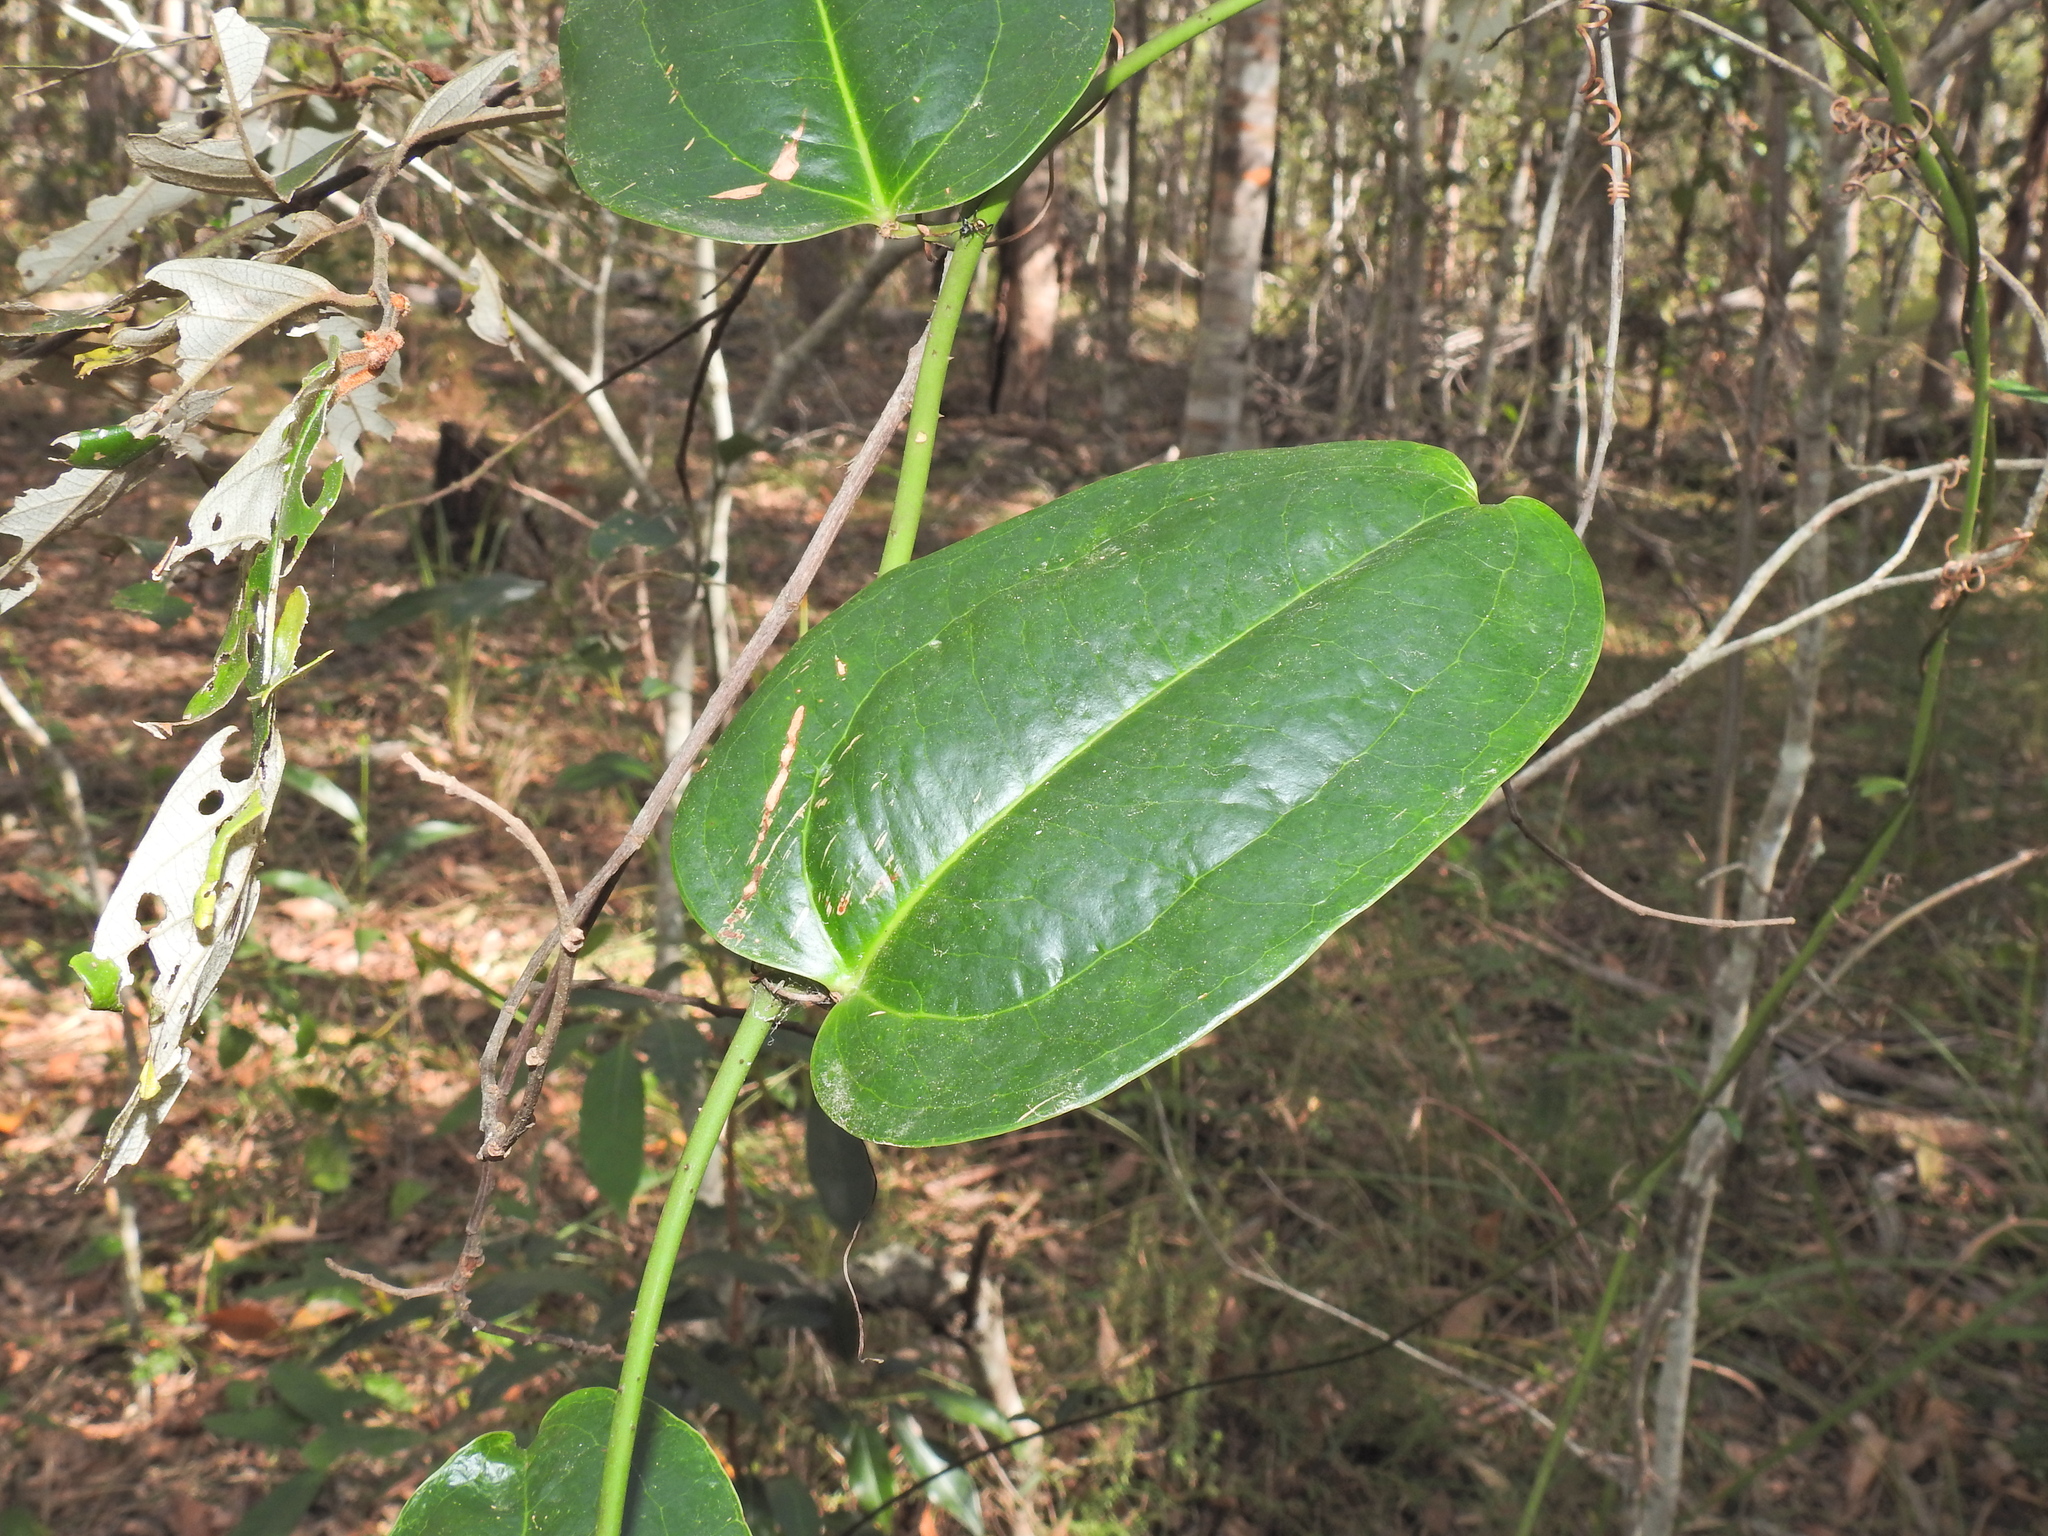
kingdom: Plantae
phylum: Tracheophyta
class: Liliopsida
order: Liliales
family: Smilacaceae
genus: Smilax
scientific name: Smilax australis
